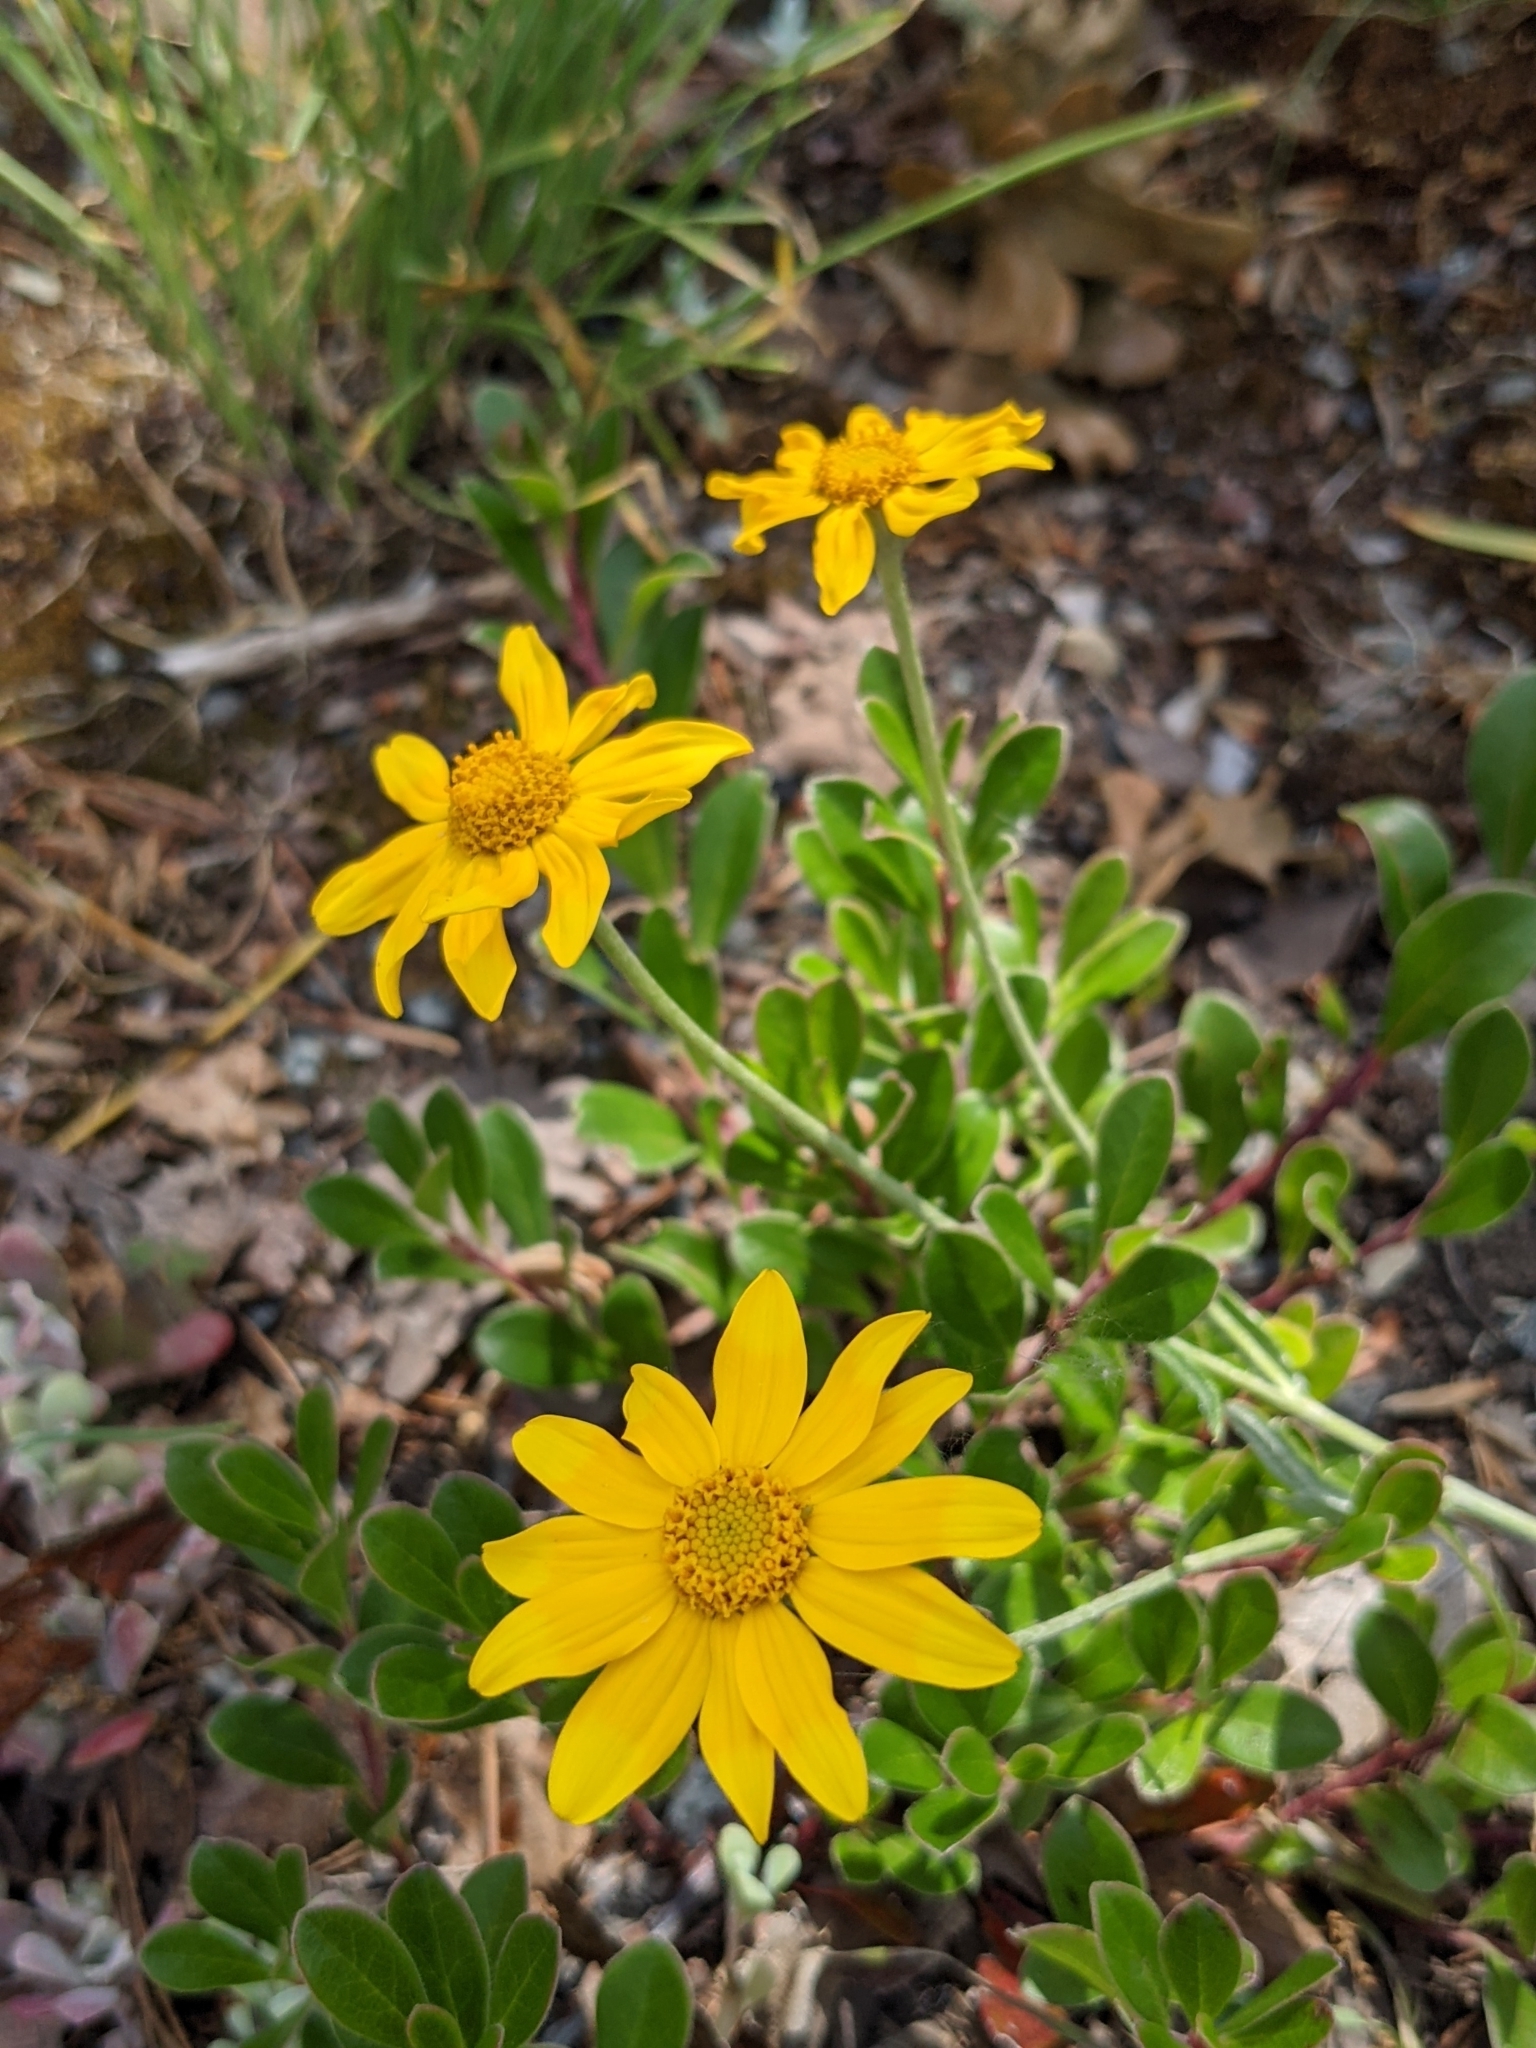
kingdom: Plantae
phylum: Tracheophyta
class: Magnoliopsida
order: Asterales
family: Asteraceae
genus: Eriophyllum
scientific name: Eriophyllum lanatum
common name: Common woolly-sunflower
